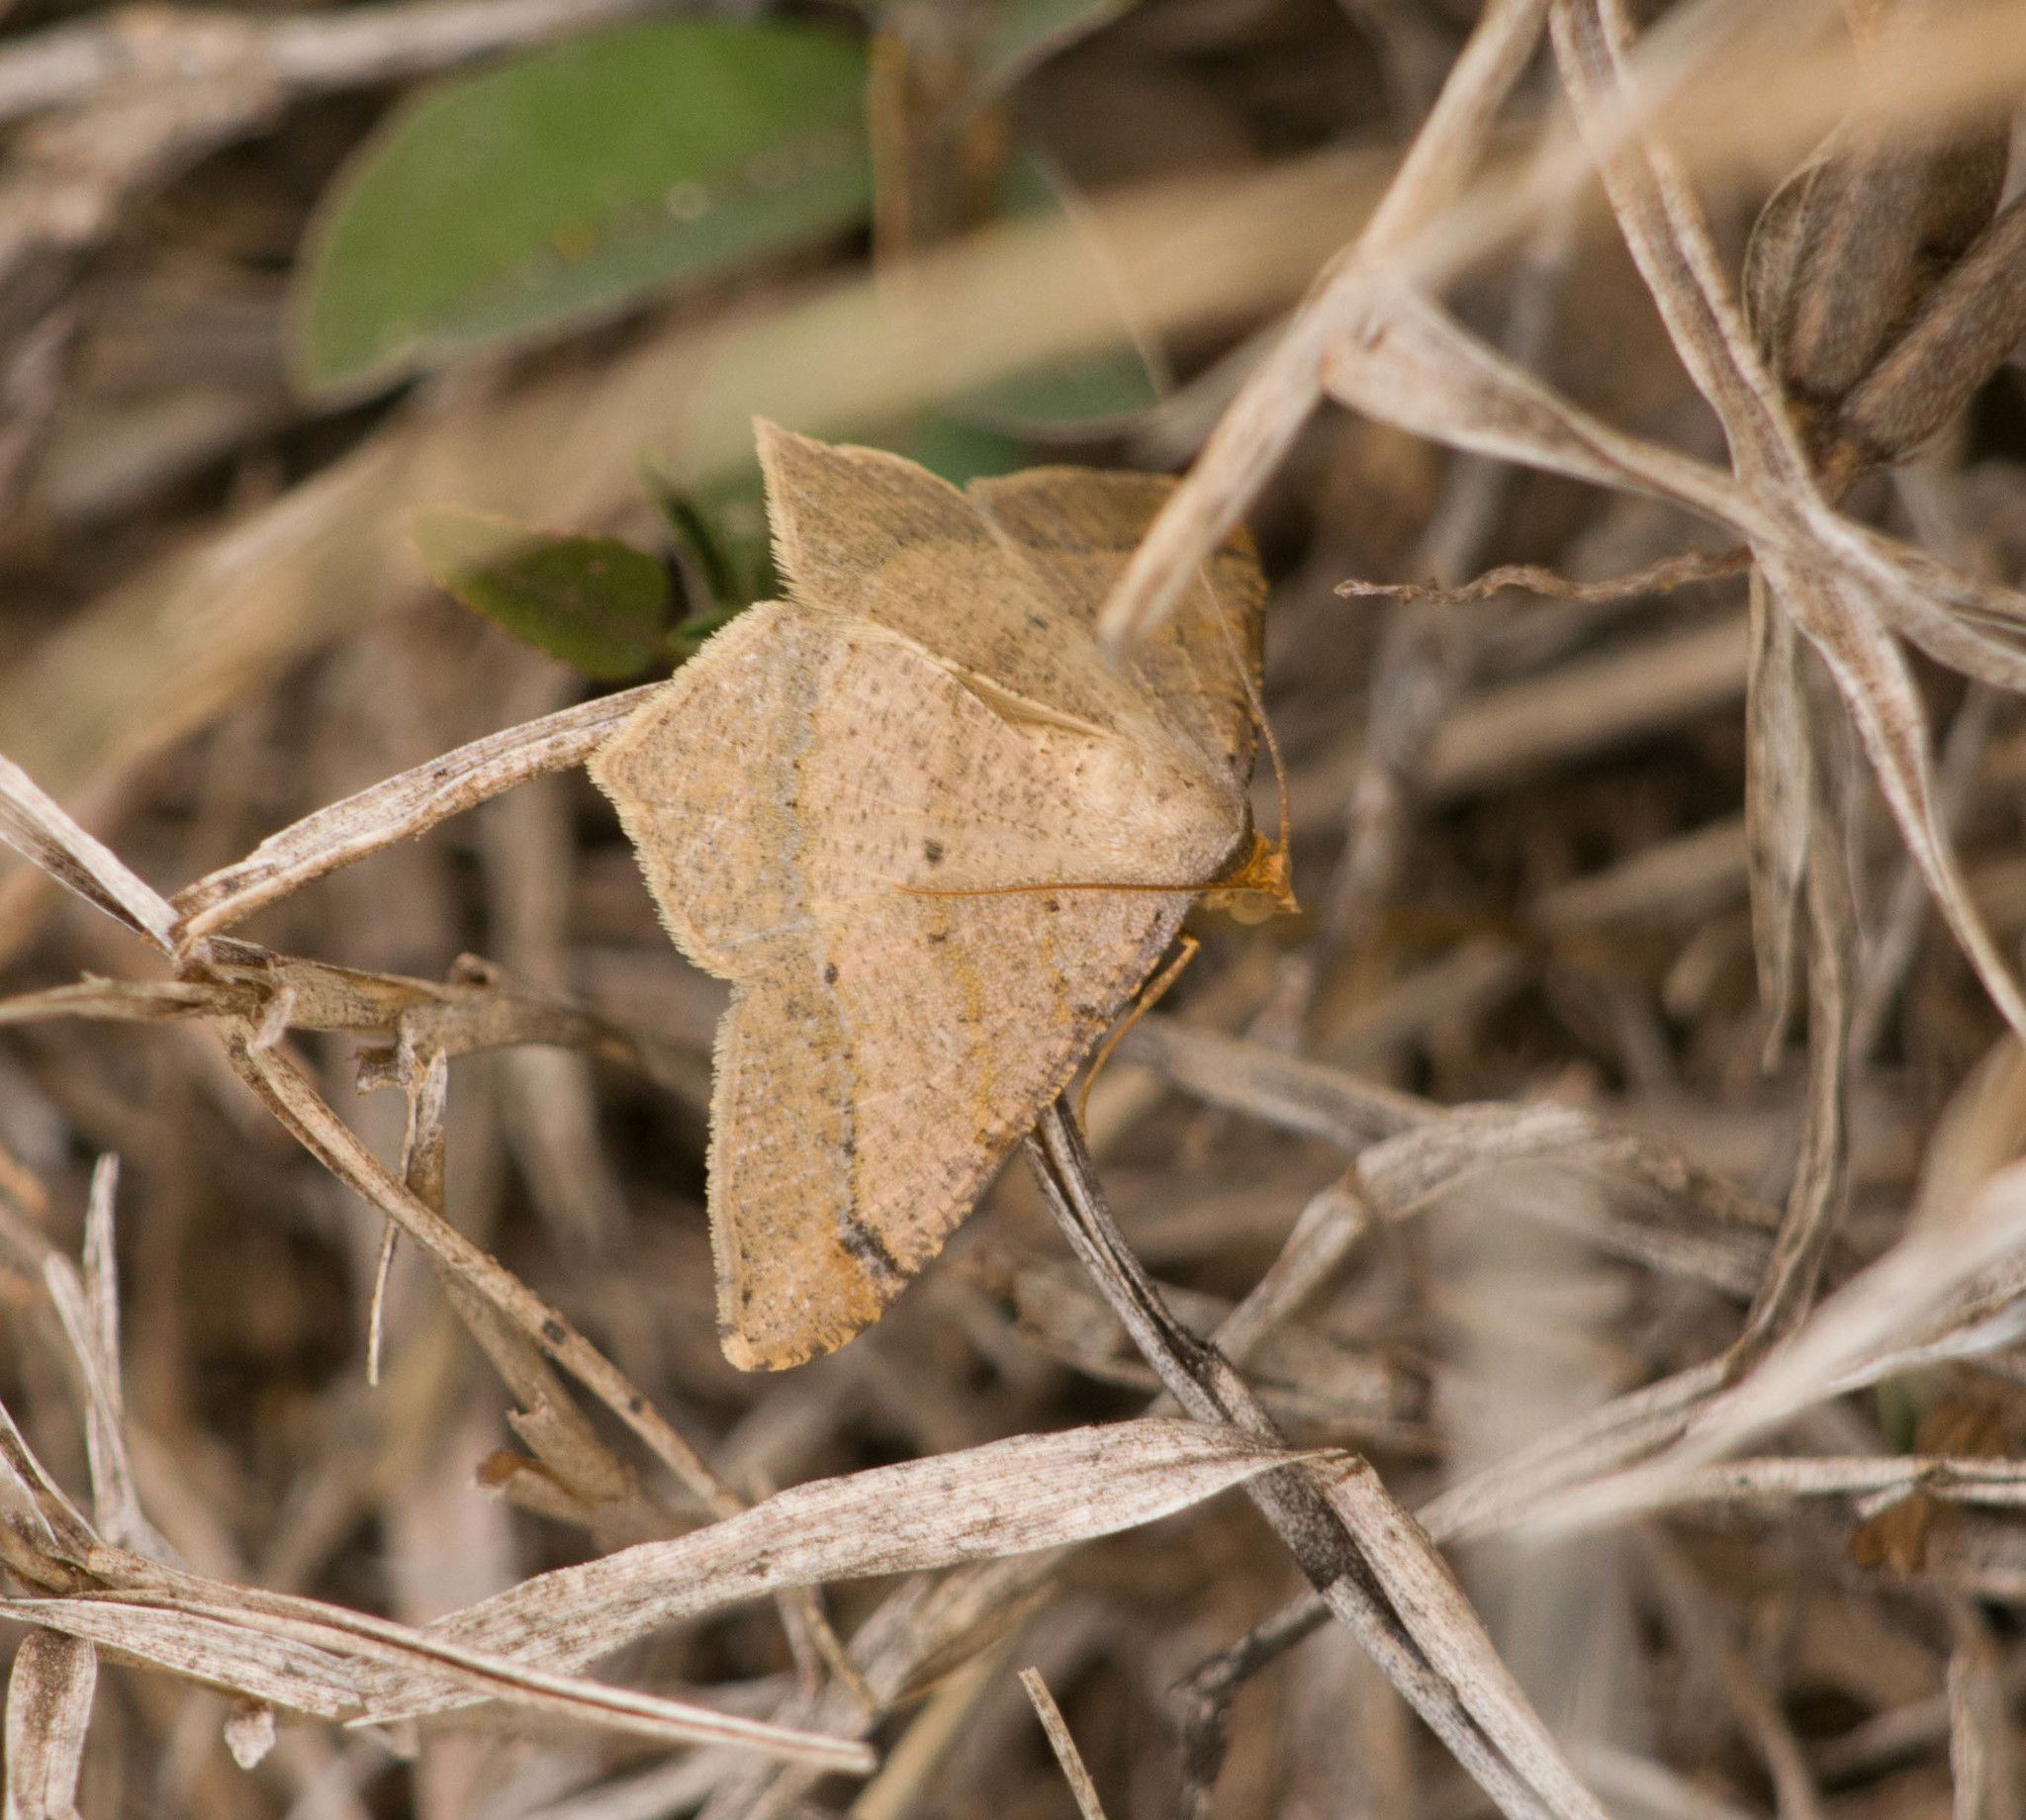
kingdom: Animalia
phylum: Arthropoda
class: Insecta
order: Lepidoptera
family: Geometridae
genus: Macaria
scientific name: Macaria abydata
